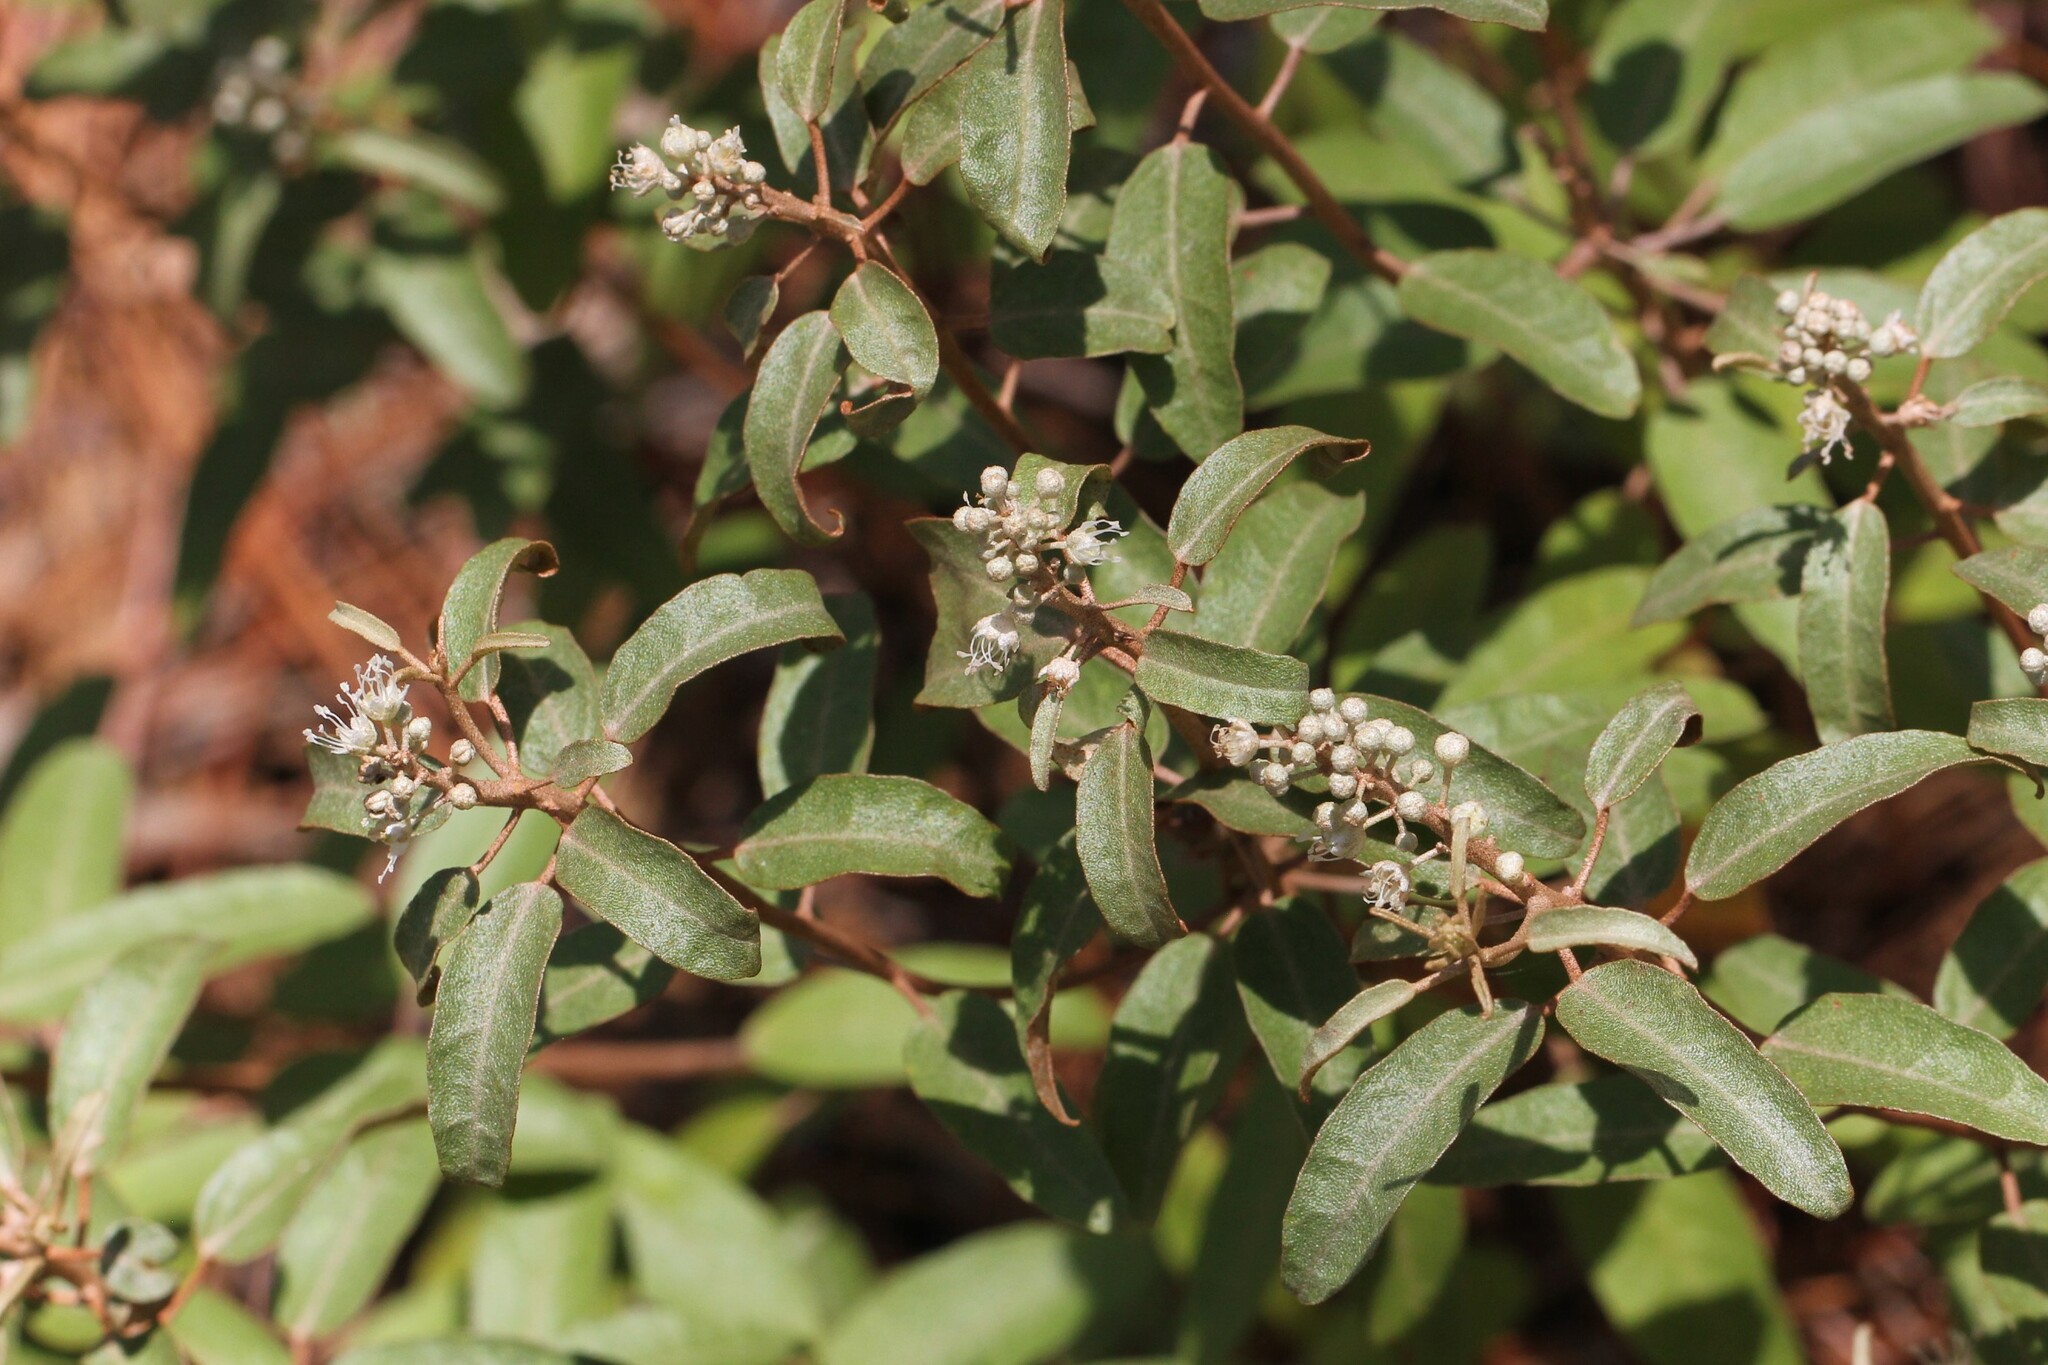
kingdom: Plantae
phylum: Tracheophyta
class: Magnoliopsida
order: Malpighiales
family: Euphorbiaceae
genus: Croton
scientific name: Croton argyranthemus
